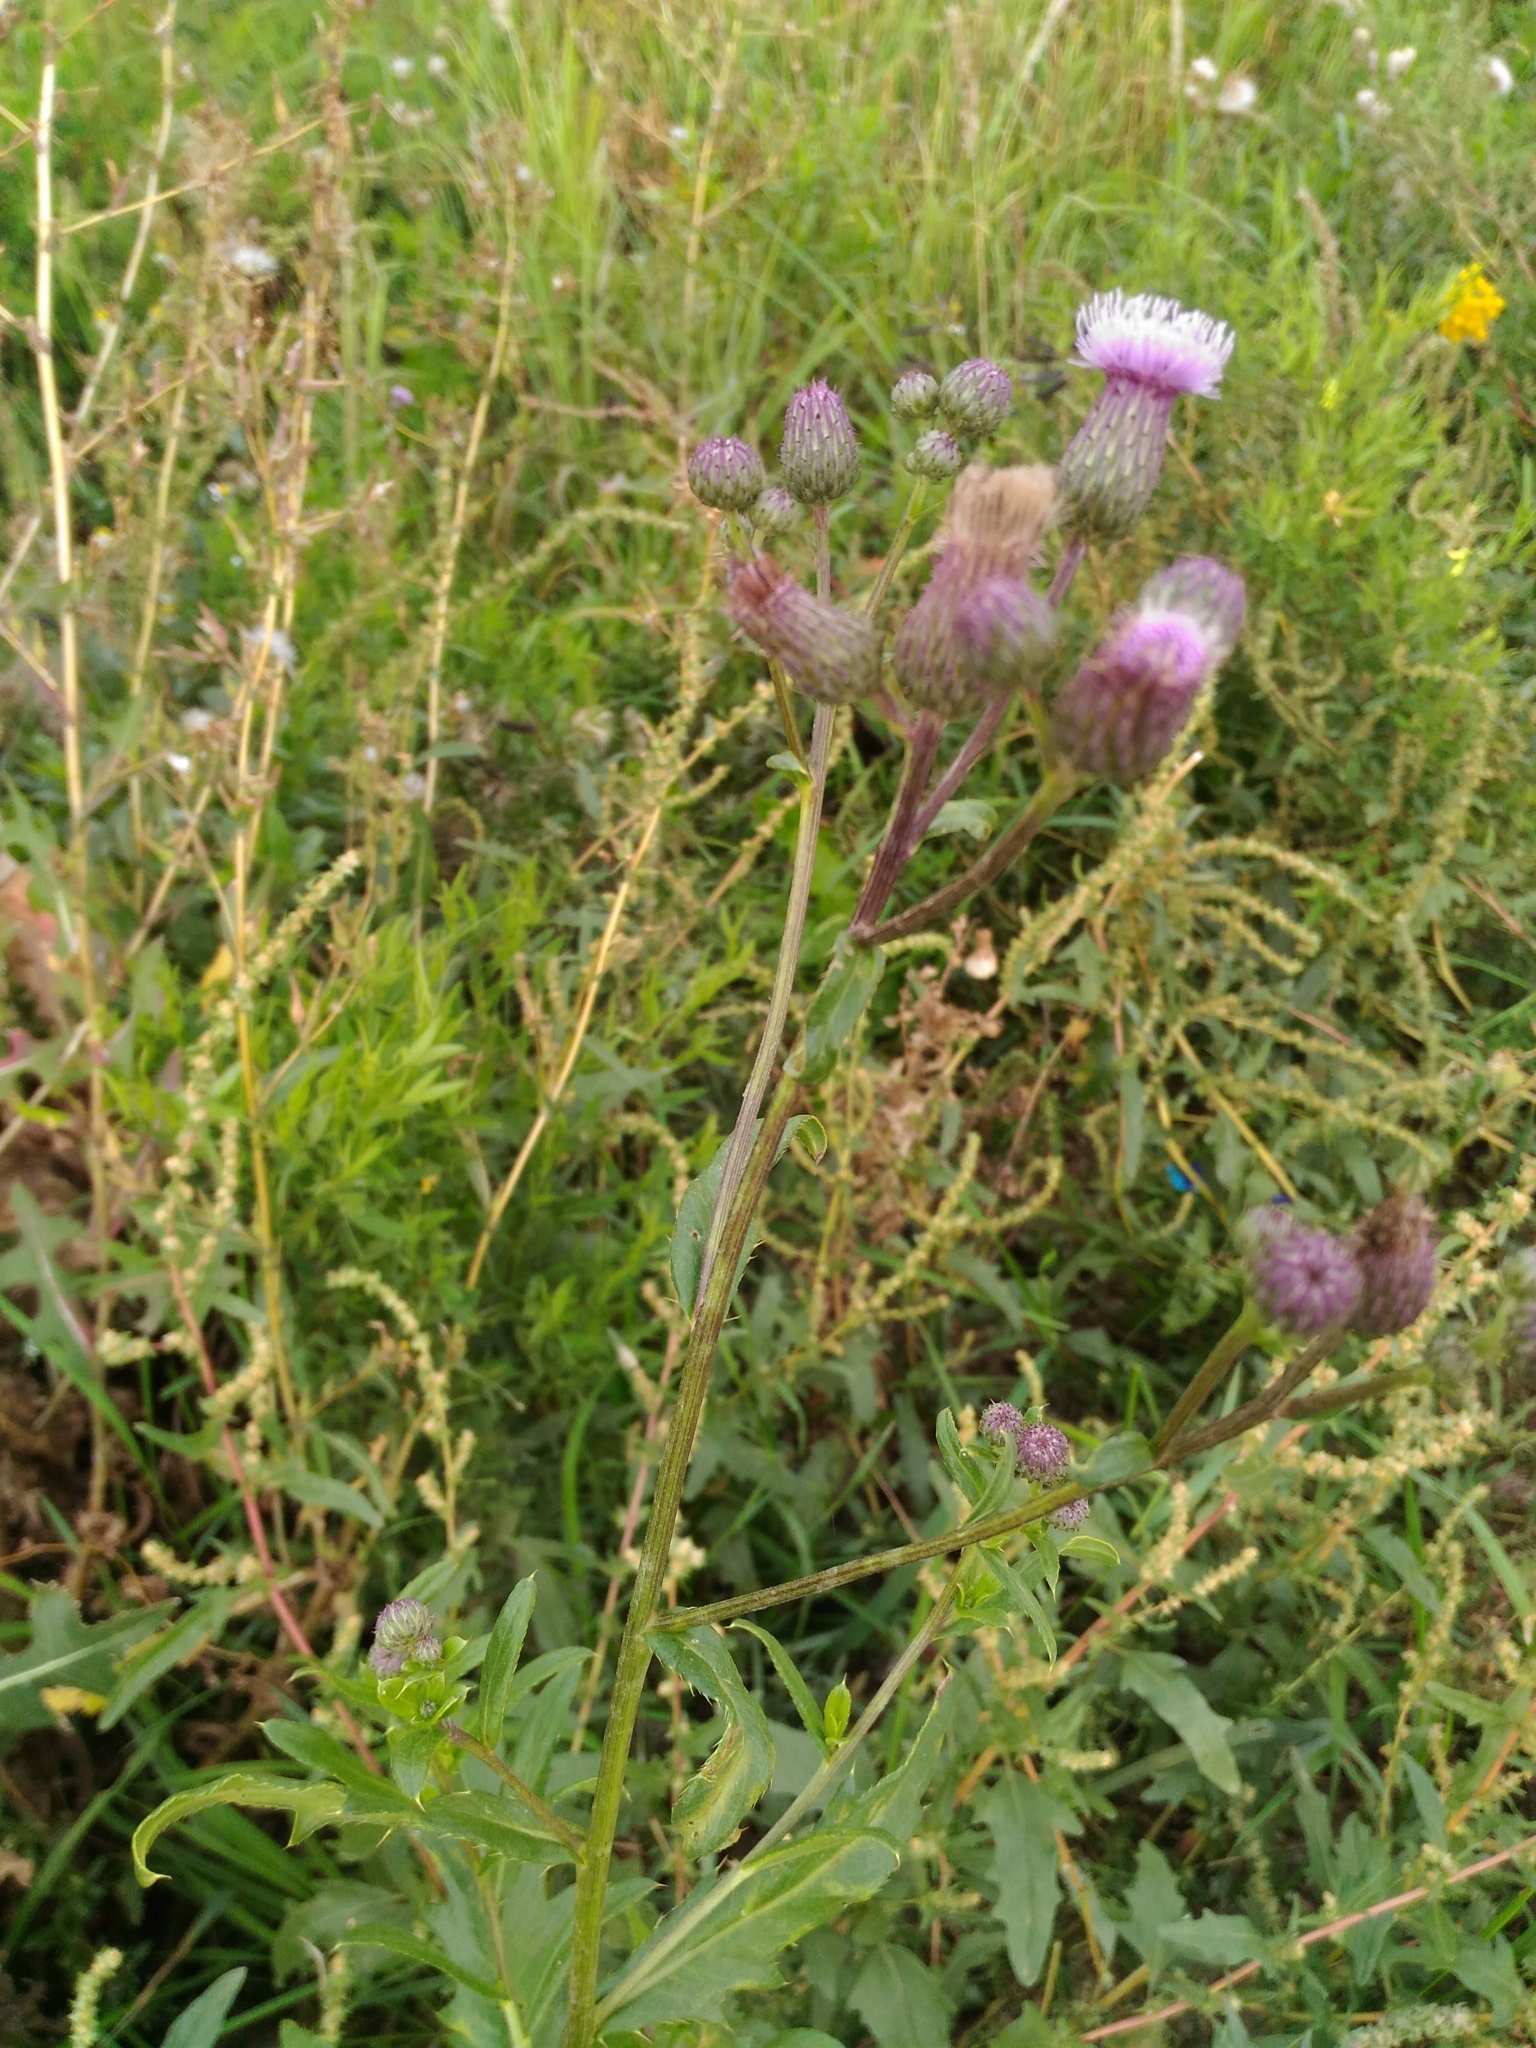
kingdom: Plantae
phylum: Tracheophyta
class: Magnoliopsida
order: Asterales
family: Asteraceae
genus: Cirsium
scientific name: Cirsium arvense
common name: Creeping thistle
